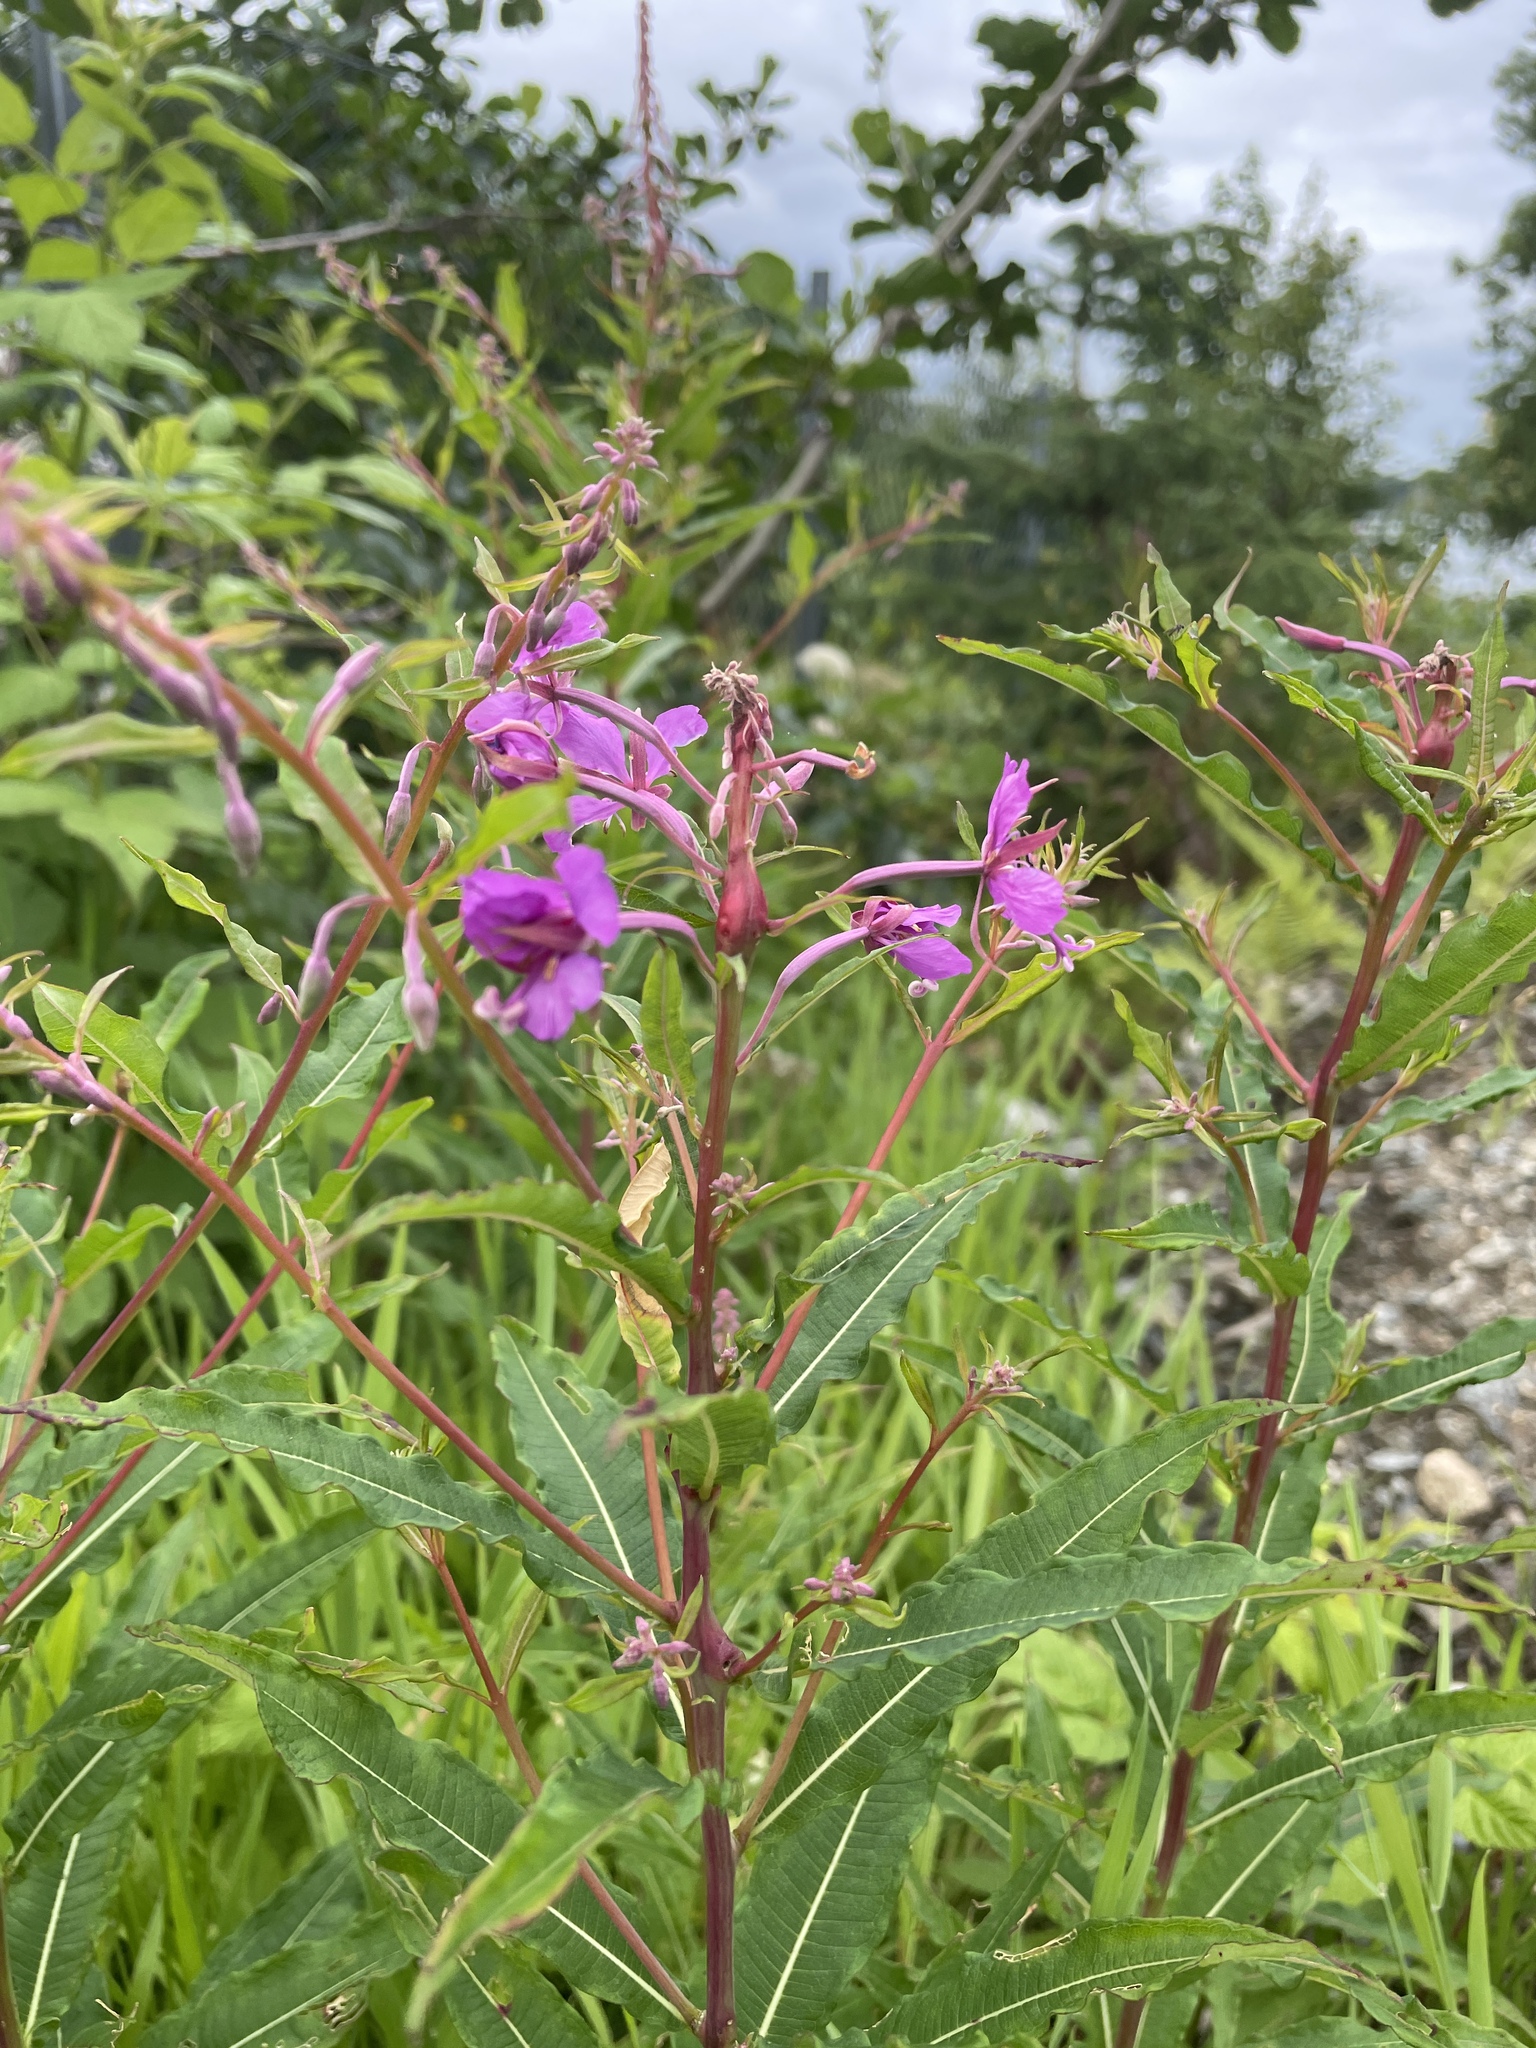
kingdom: Plantae
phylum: Tracheophyta
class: Magnoliopsida
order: Myrtales
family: Onagraceae
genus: Chamaenerion
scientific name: Chamaenerion angustifolium
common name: Fireweed
